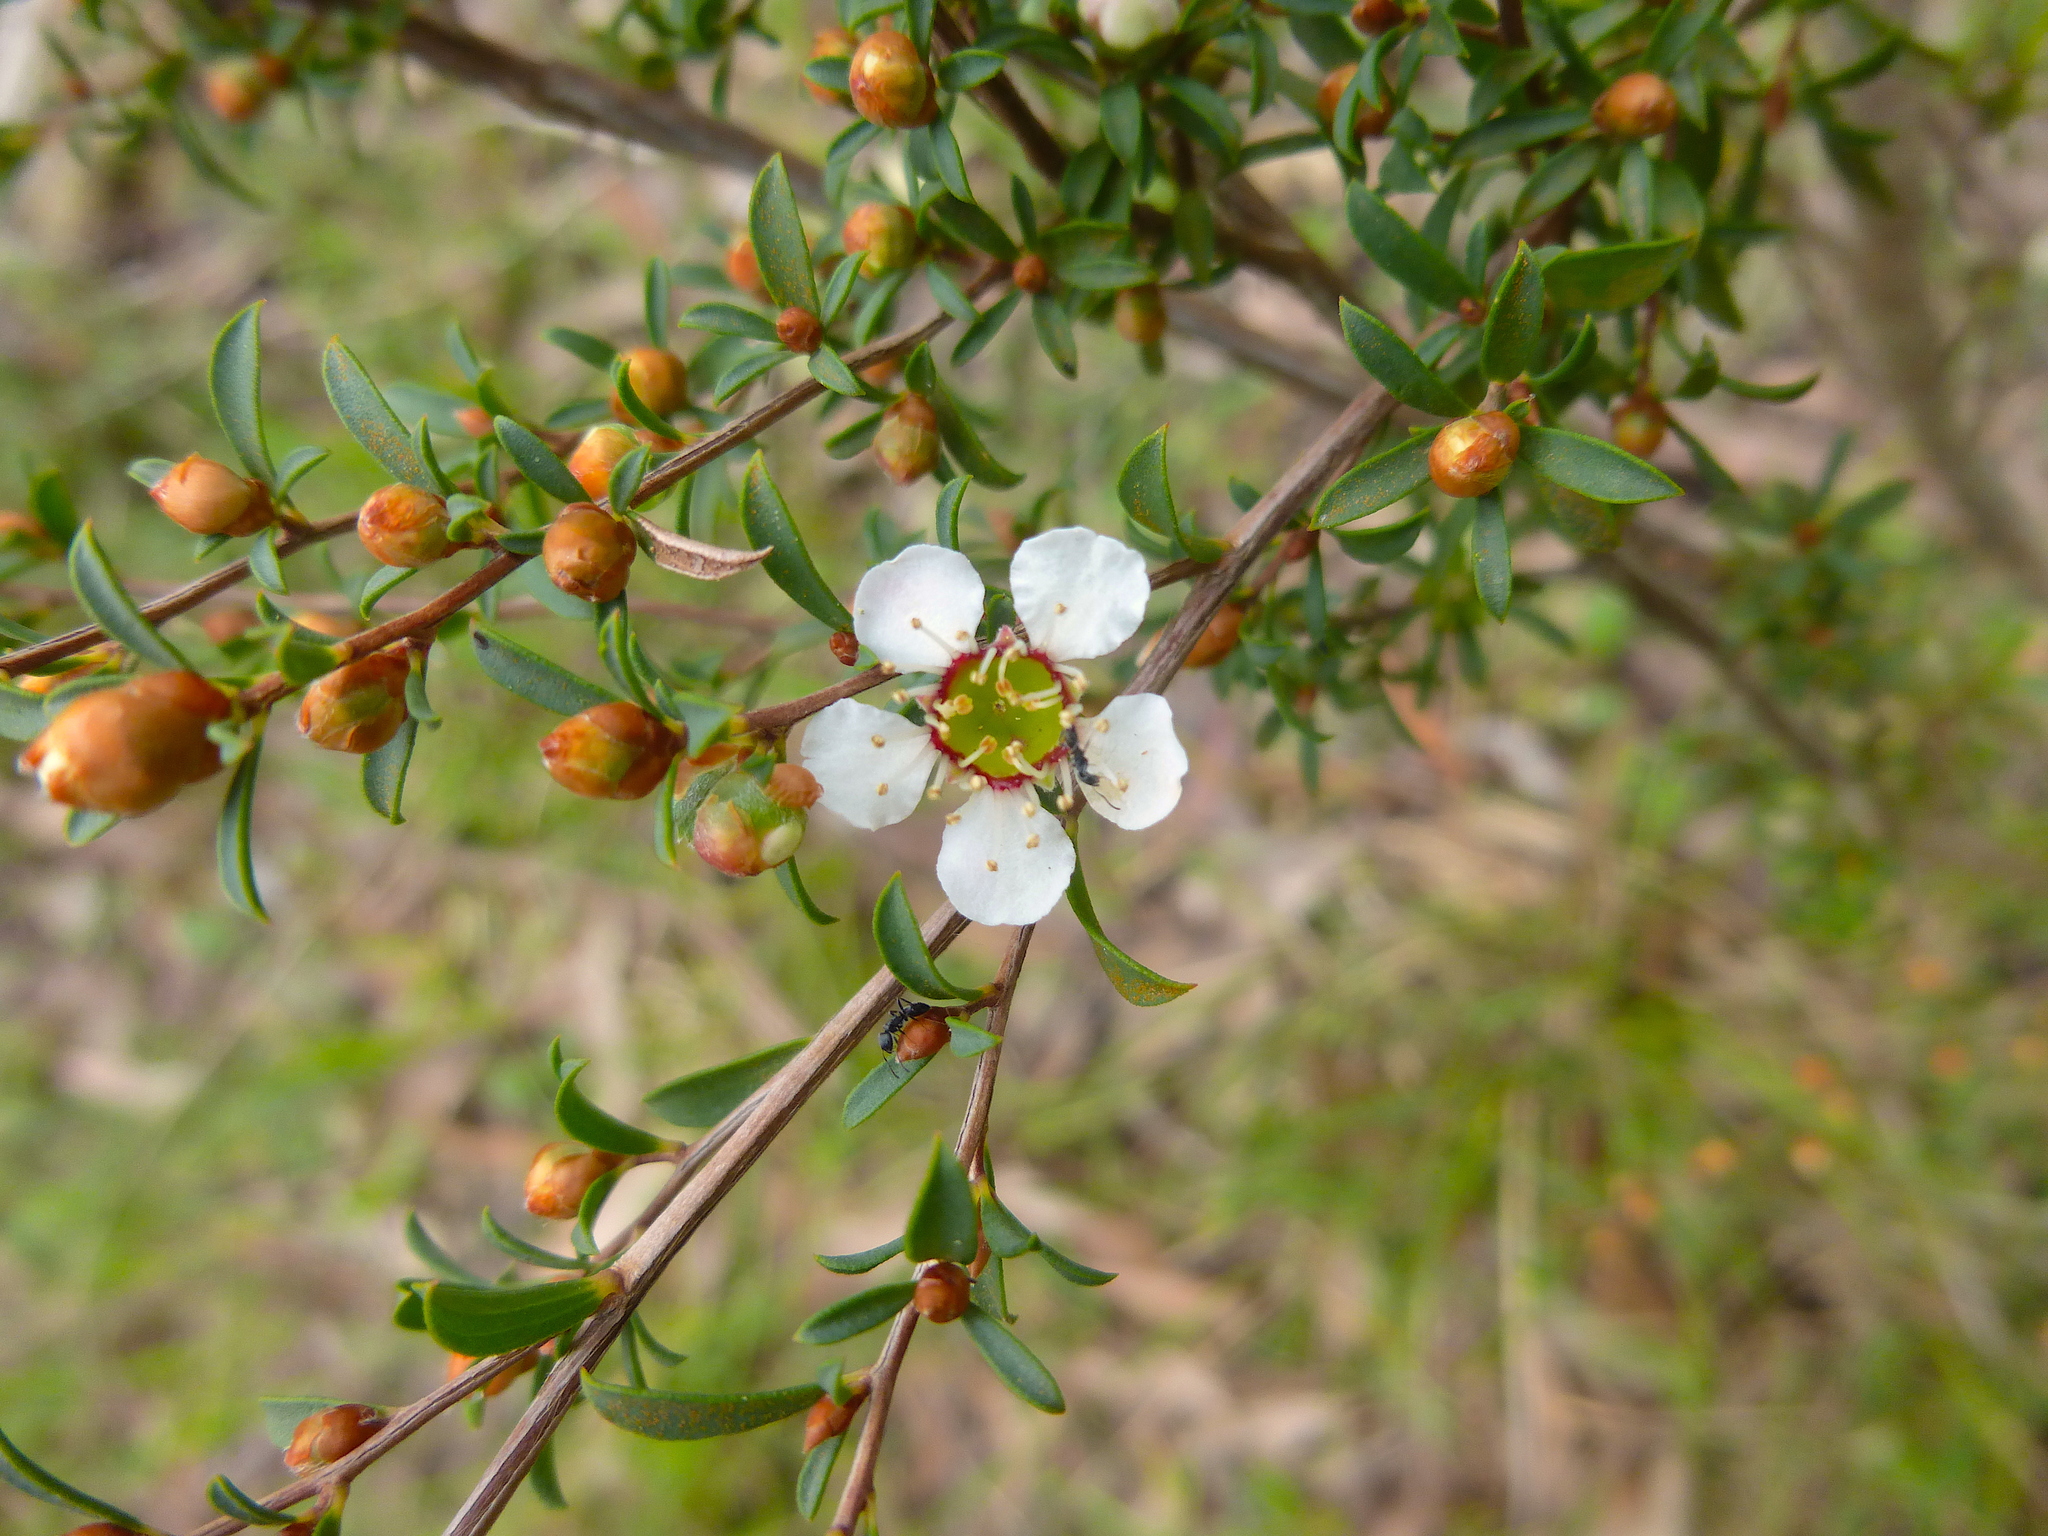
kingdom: Plantae
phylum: Tracheophyta
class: Magnoliopsida
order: Myrtales
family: Myrtaceae
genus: Leptospermum
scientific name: Leptospermum myrsinoides
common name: Heath teatree
